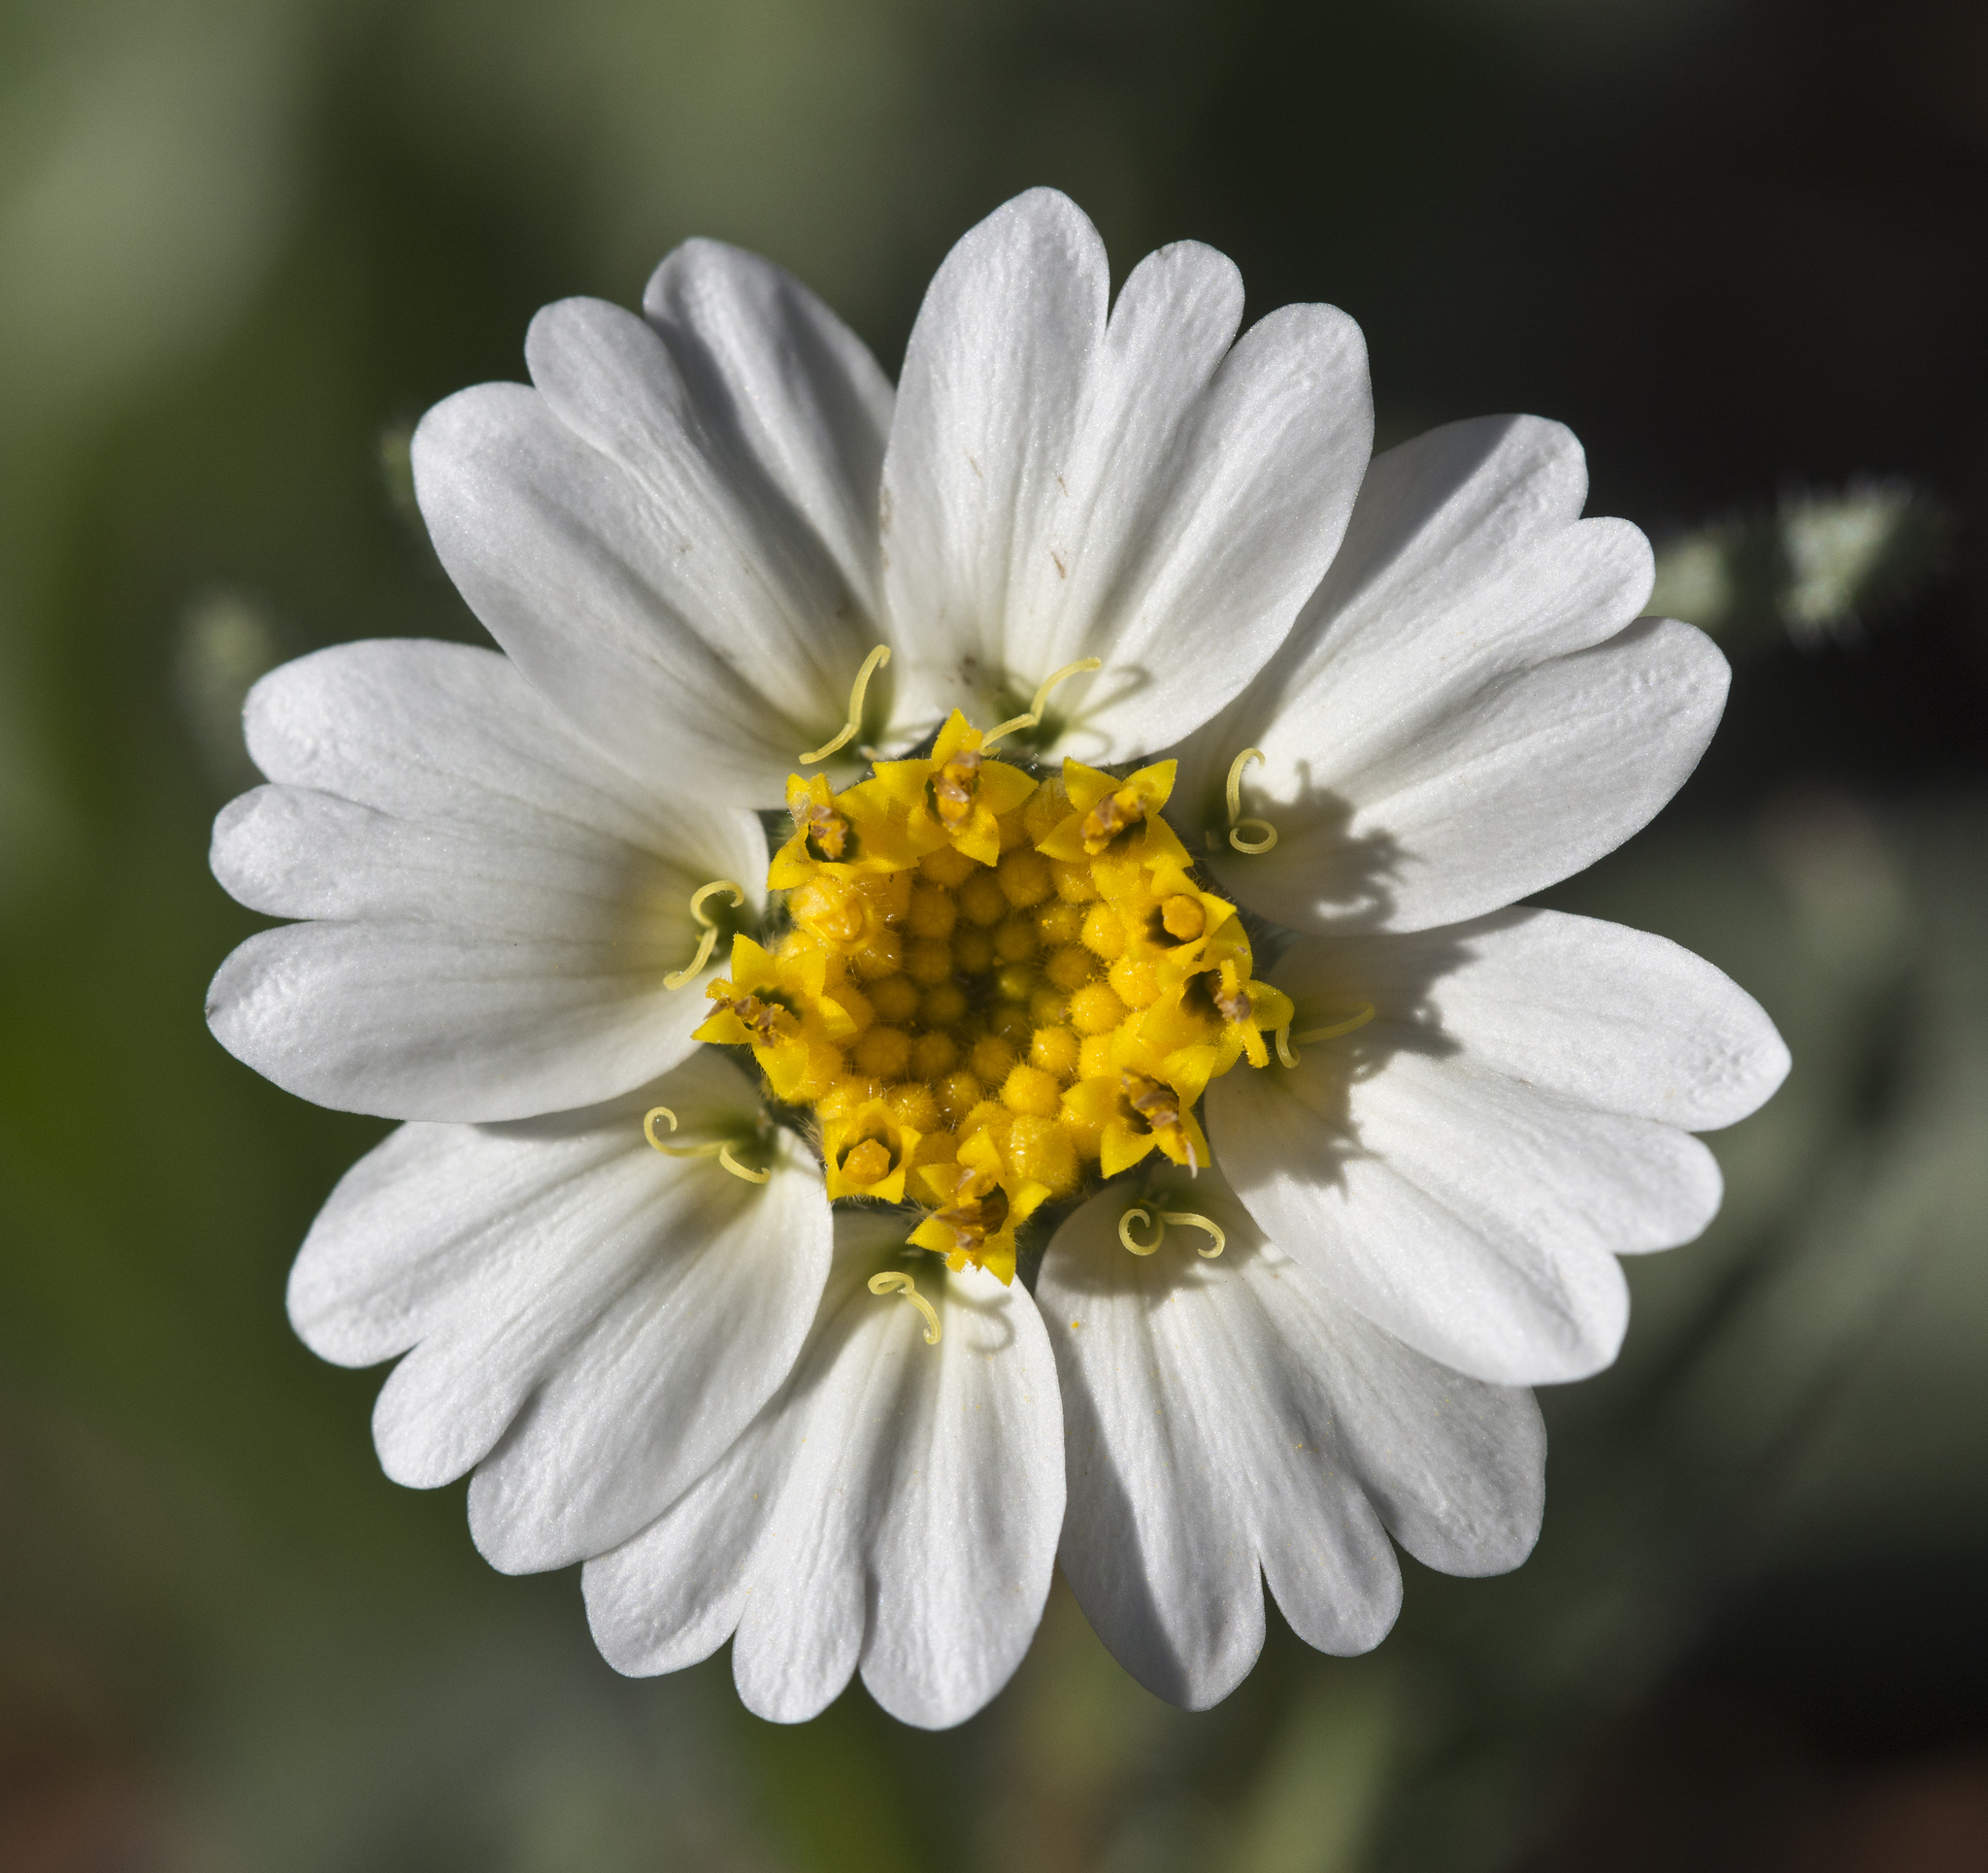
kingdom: Plantae
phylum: Tracheophyta
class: Magnoliopsida
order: Asterales
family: Asteraceae
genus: Layia
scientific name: Layia glandulosa
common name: White layia
